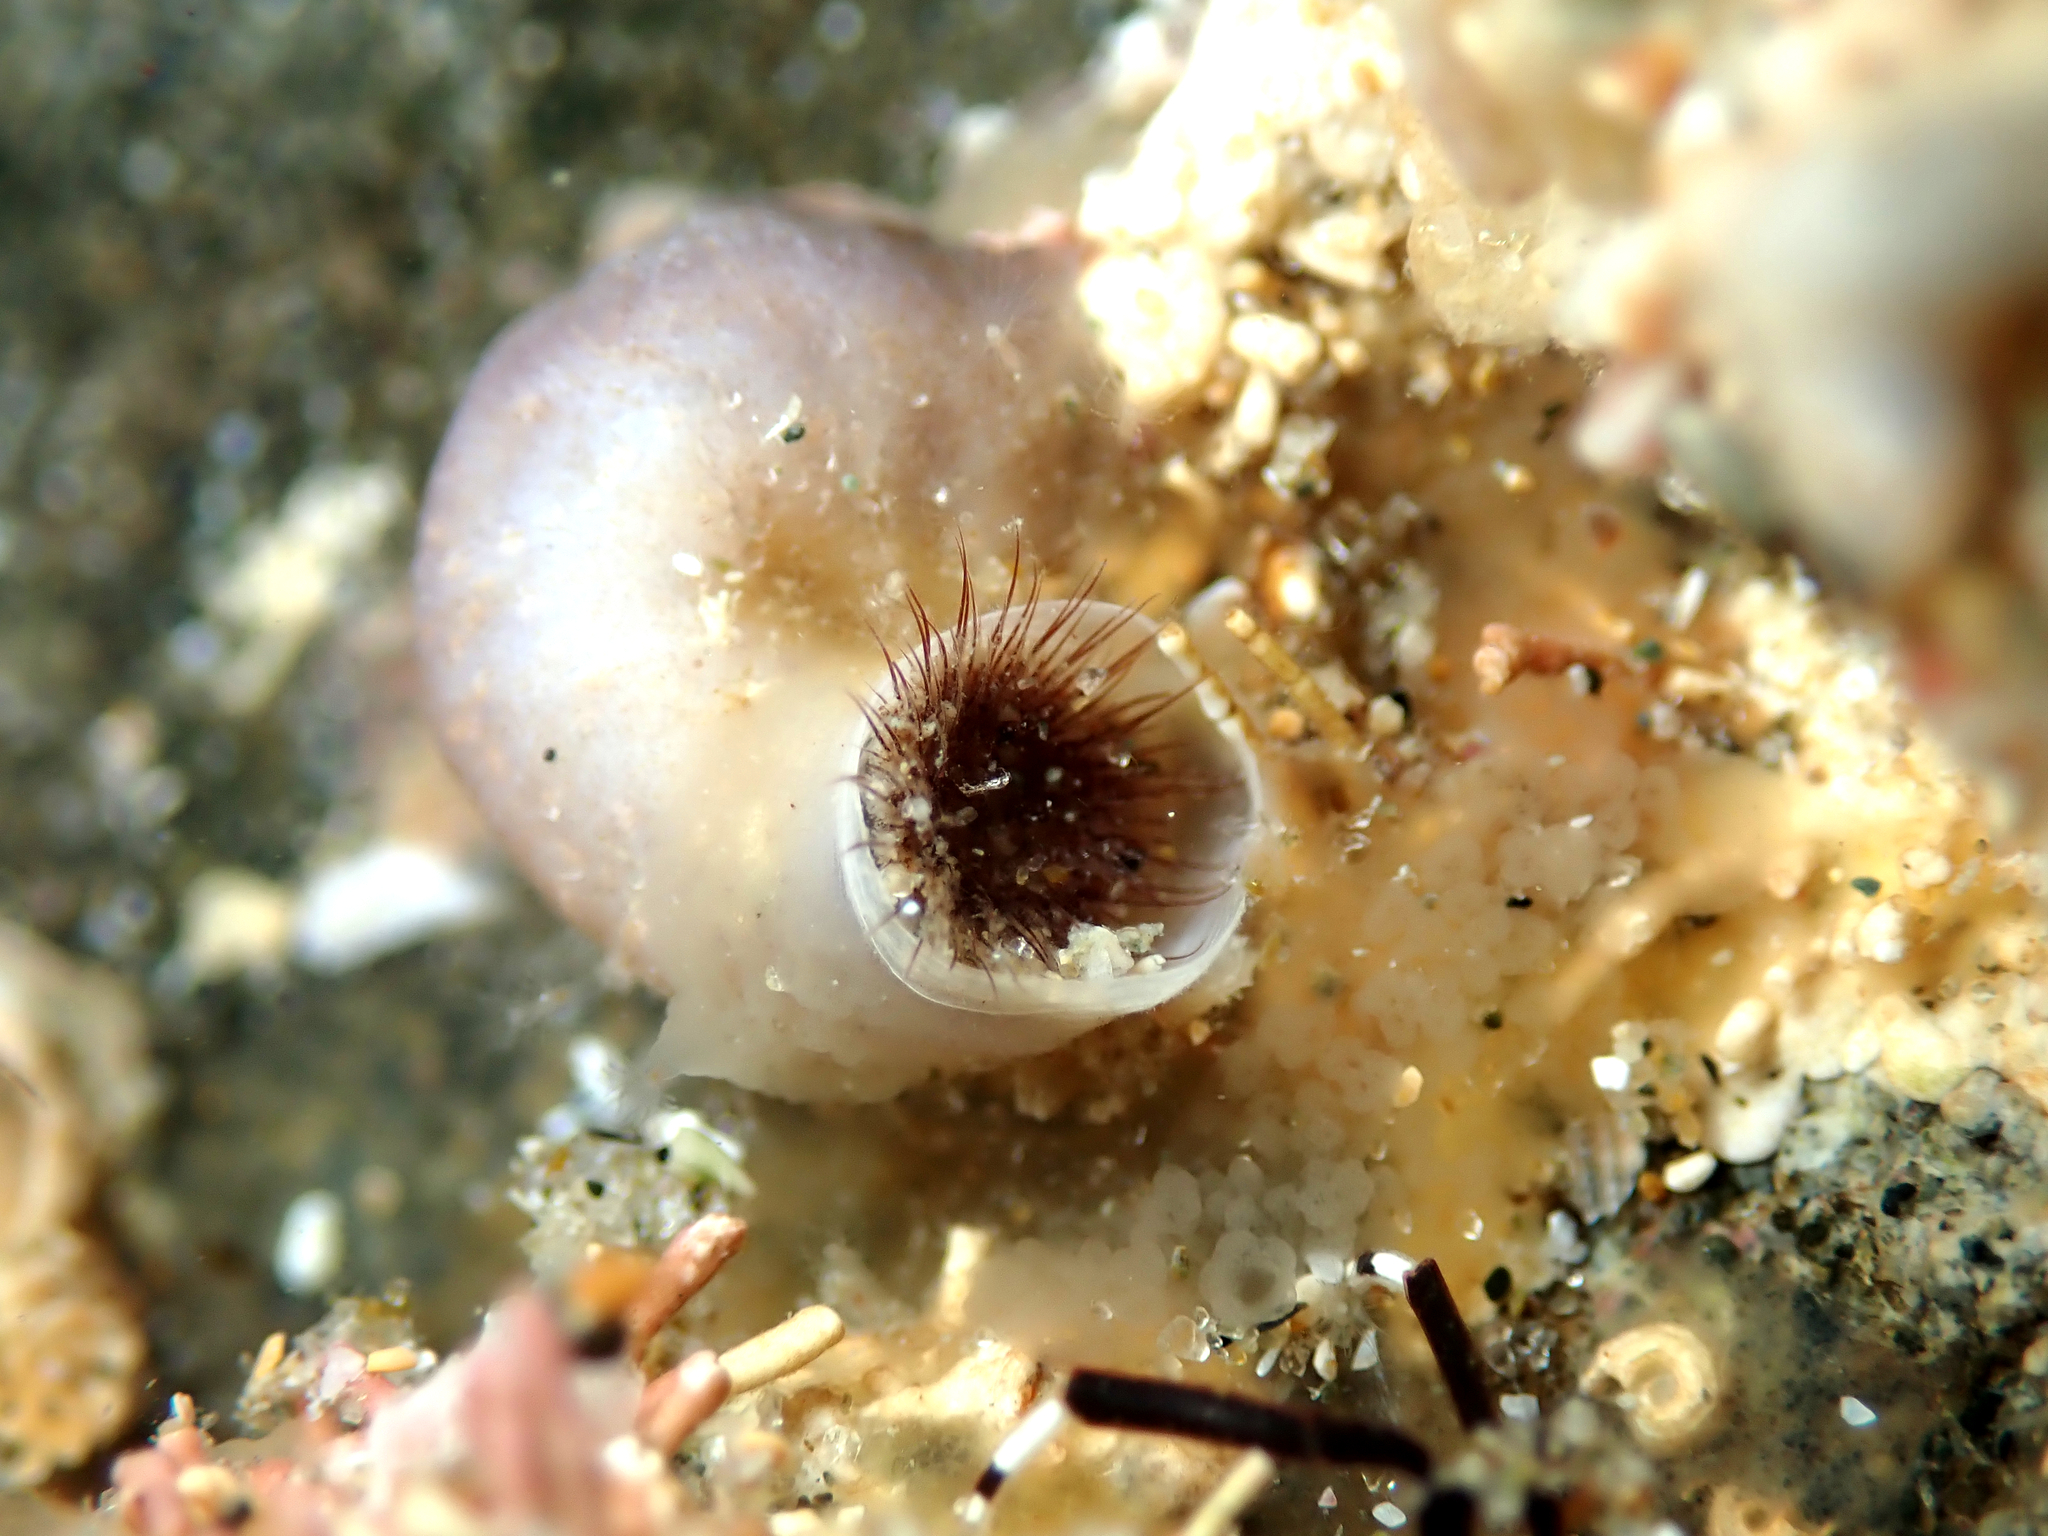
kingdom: Animalia
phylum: Mollusca
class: Gastropoda
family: Siliquariidae
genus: Stephopoma
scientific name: Stephopoma roseum
